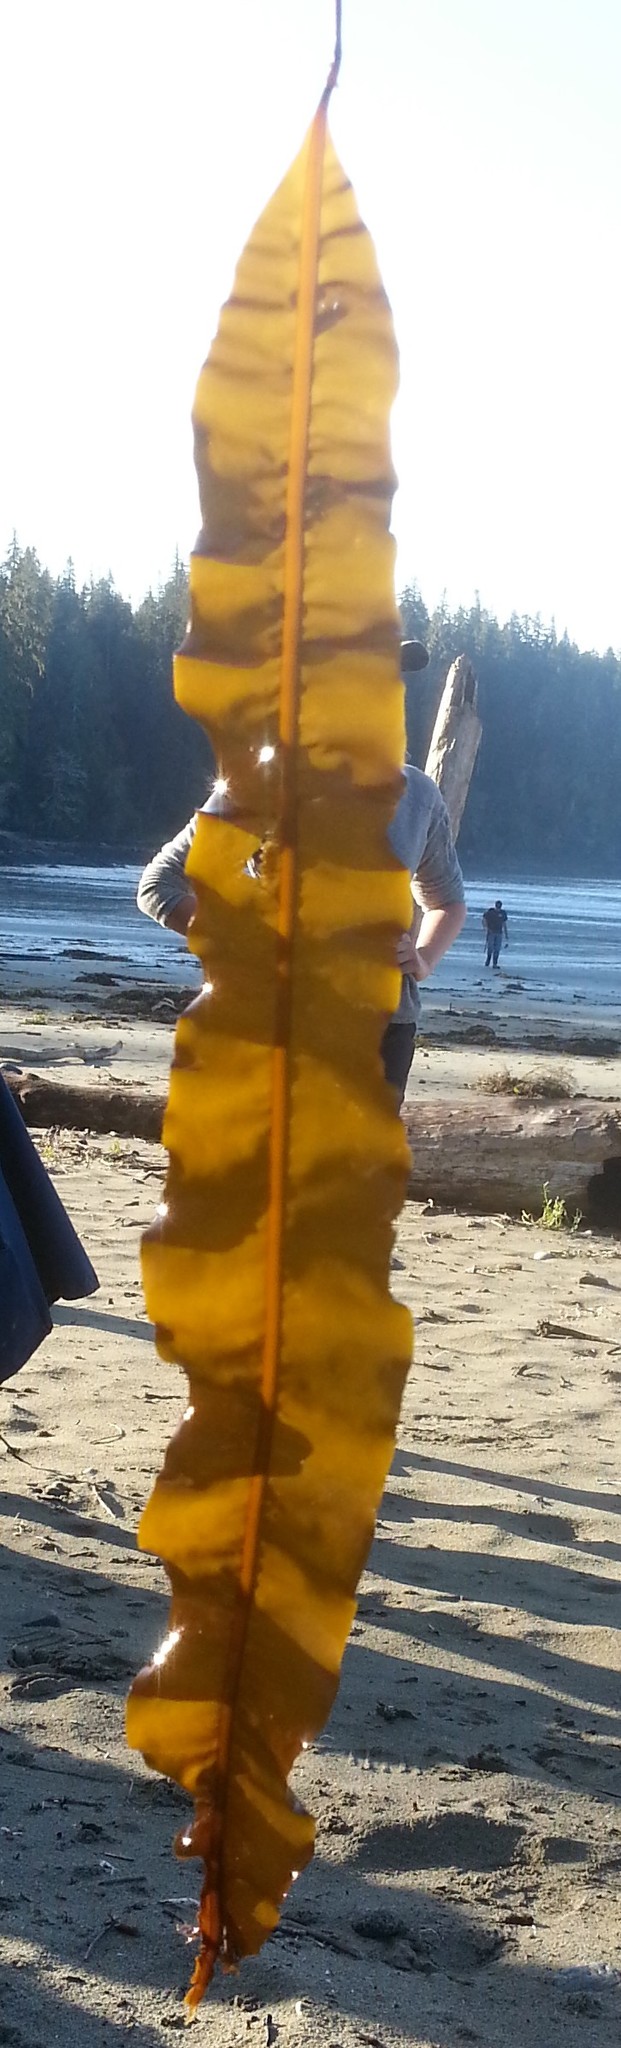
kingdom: Chromista
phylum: Ochrophyta
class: Phaeophyceae
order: Laminariales
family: Alariaceae
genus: Alaria
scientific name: Alaria marginata
